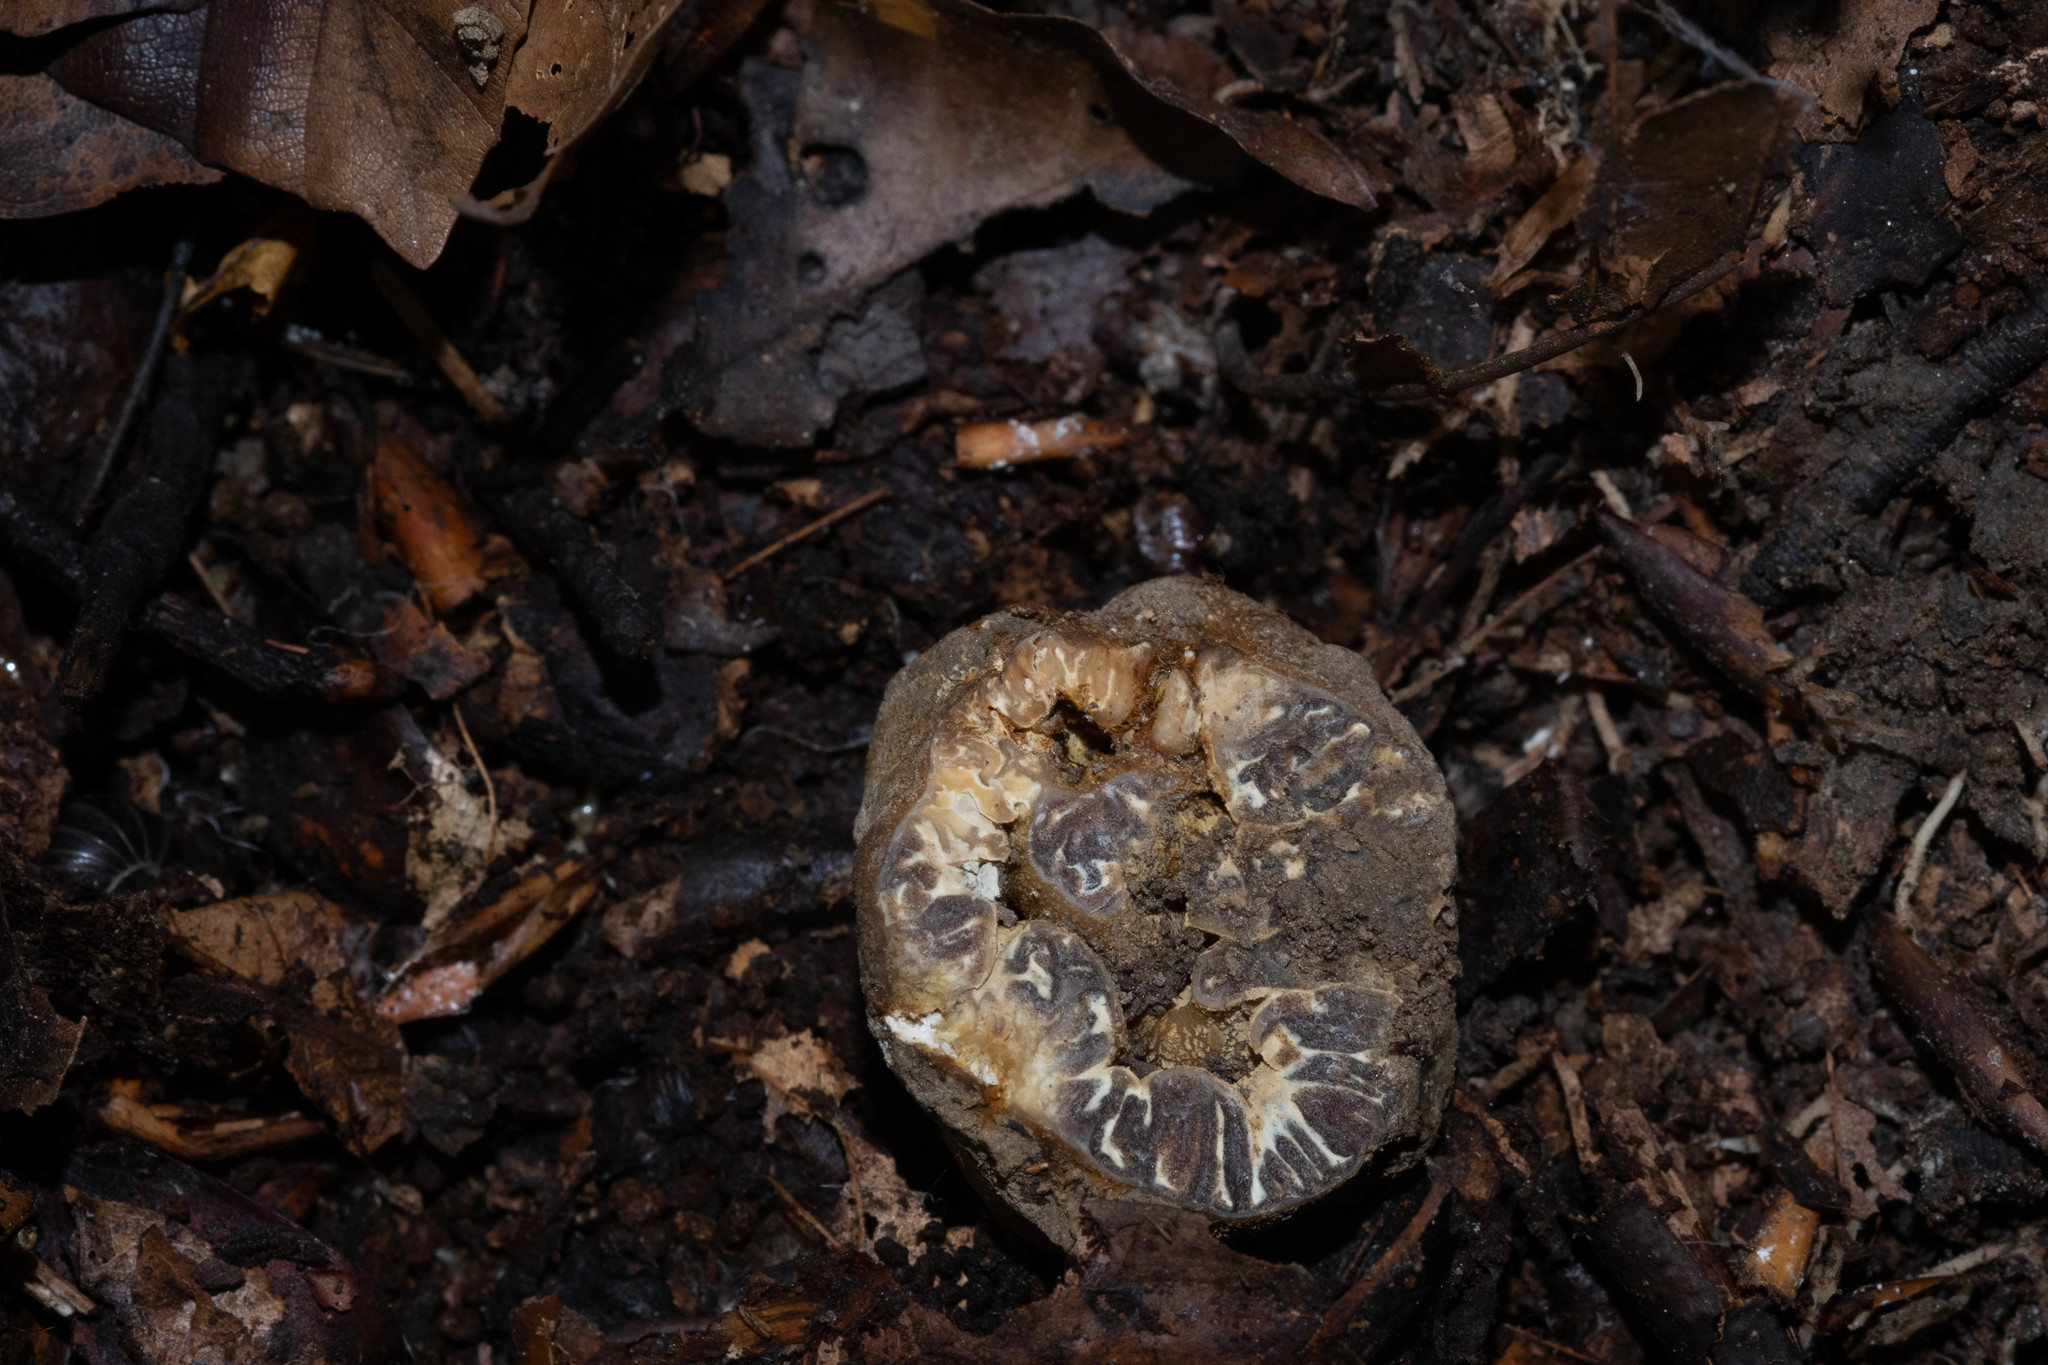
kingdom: Fungi
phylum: Ascomycota
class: Pezizomycetes
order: Pezizales
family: Tuberaceae
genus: Tuber
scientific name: Tuber excavatum
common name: Hollowed truffle
